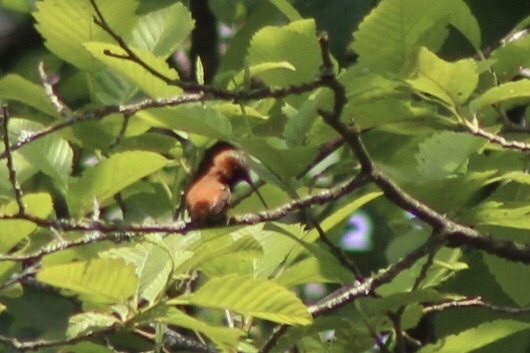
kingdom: Animalia
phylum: Chordata
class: Aves
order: Apodiformes
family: Trochilidae
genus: Selasphorus
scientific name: Selasphorus rufus
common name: Rufous hummingbird
